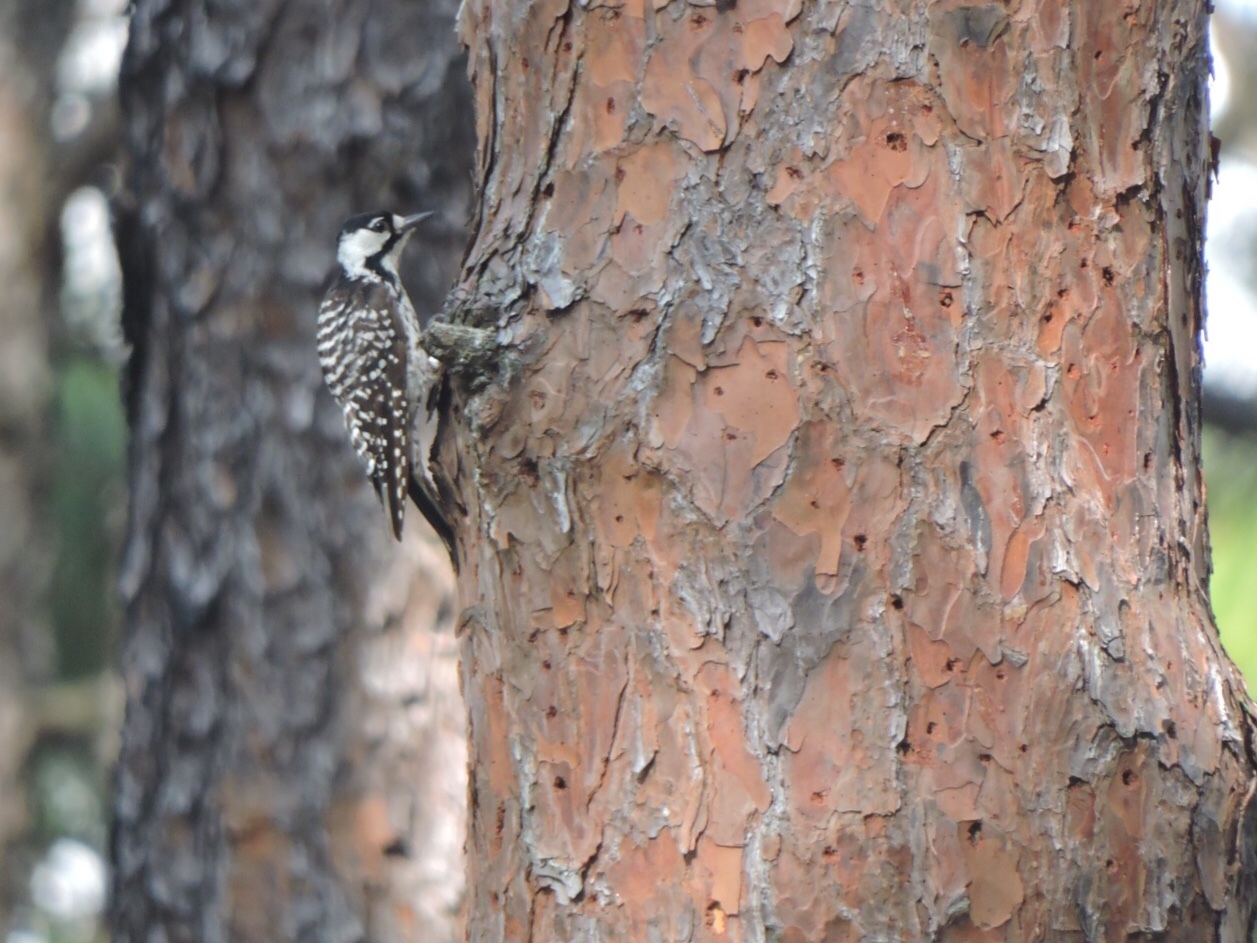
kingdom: Animalia
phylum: Chordata
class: Aves
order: Piciformes
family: Picidae
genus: Leuconotopicus
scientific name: Leuconotopicus borealis
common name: Red-cockaded woodpecker
